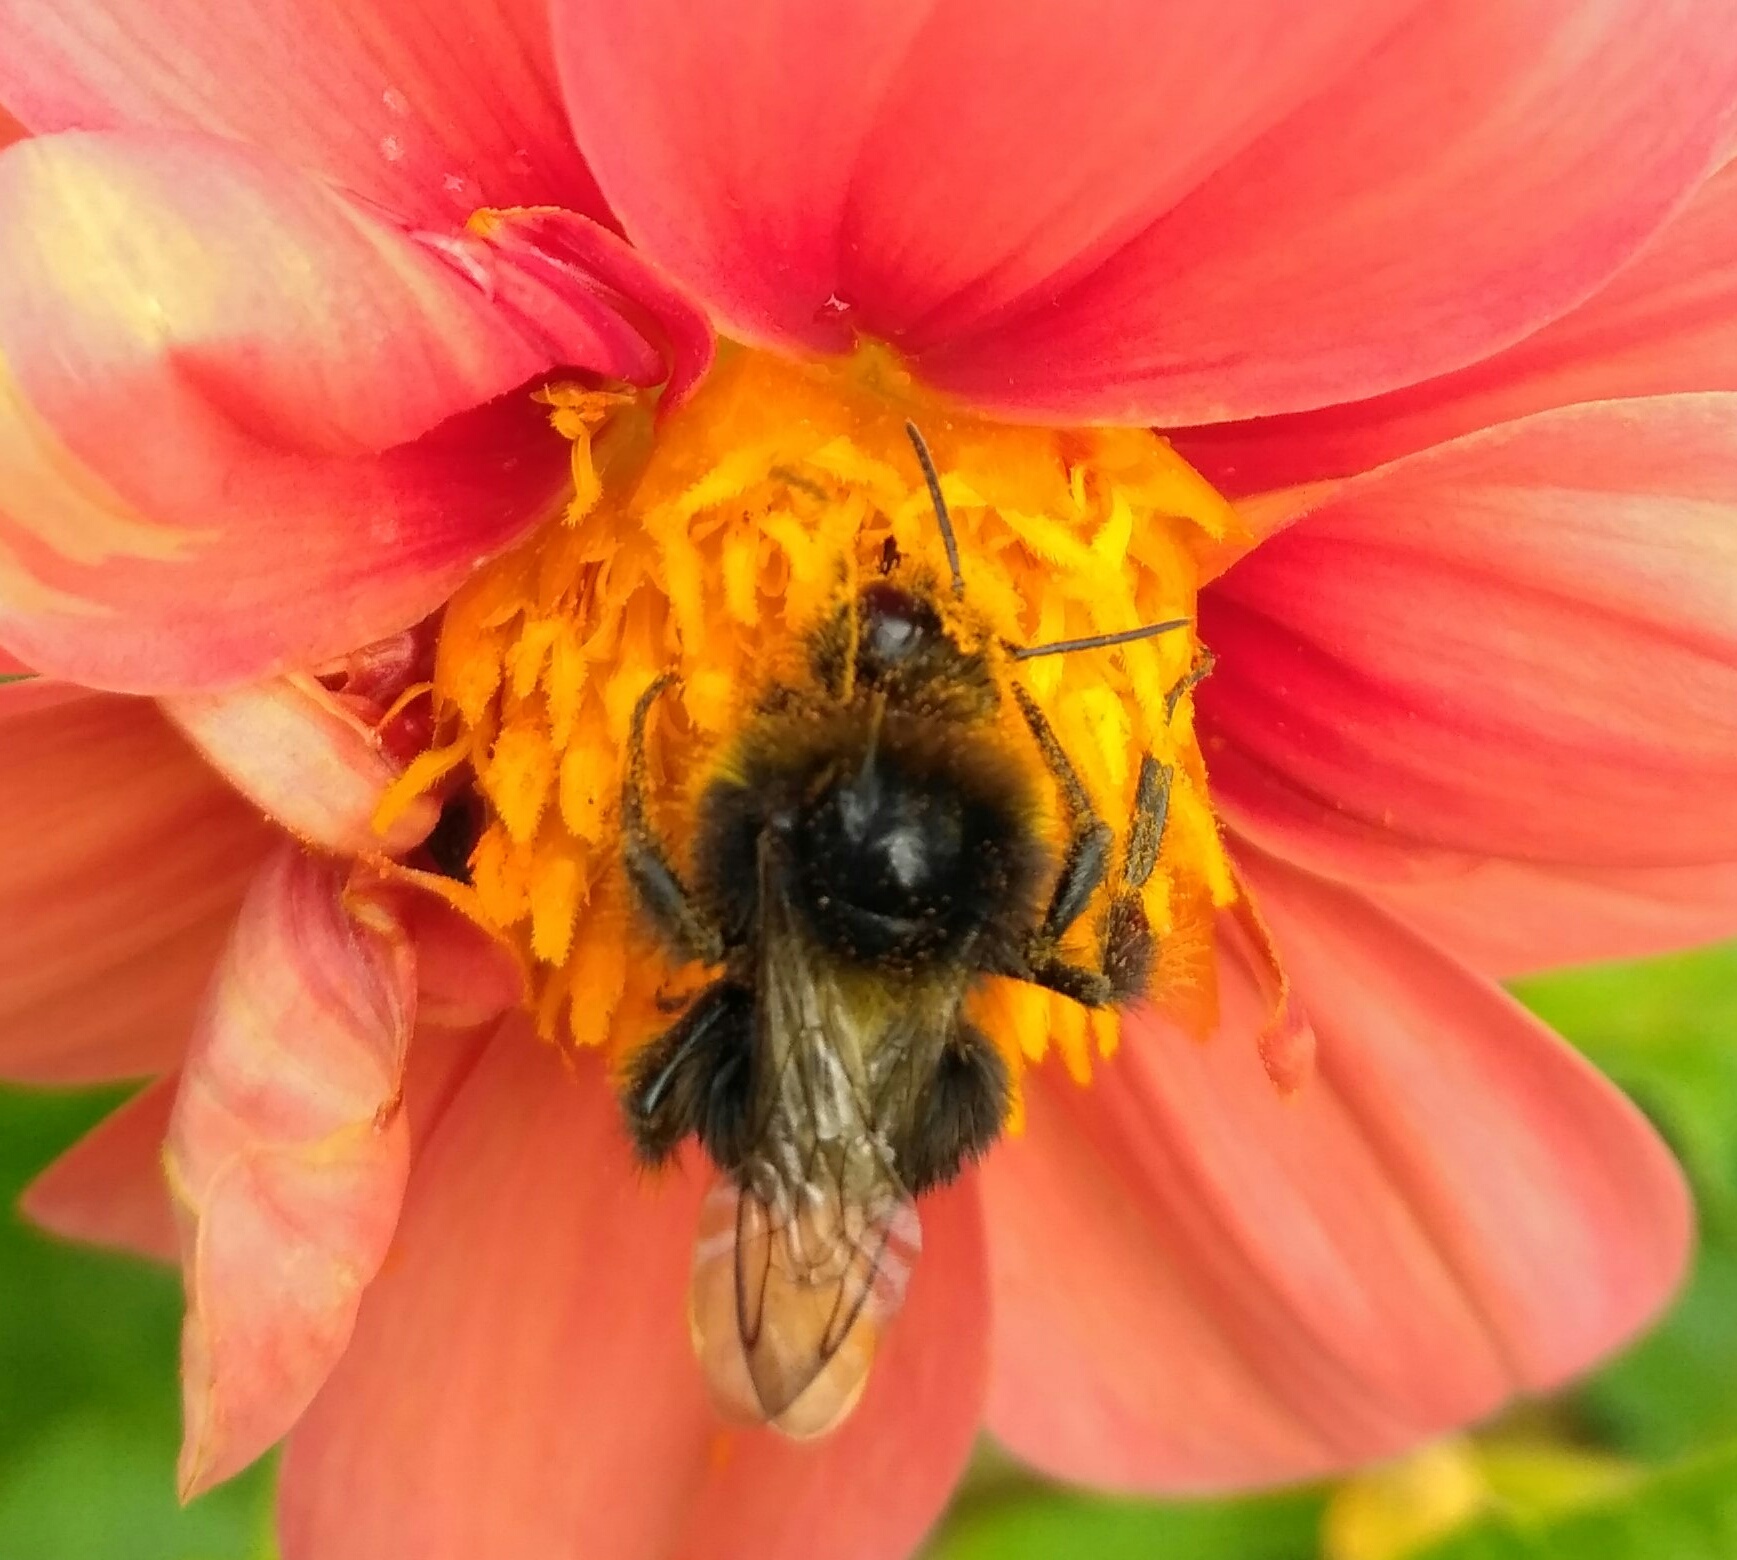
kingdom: Animalia
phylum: Arthropoda
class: Insecta
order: Hymenoptera
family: Apidae
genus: Bombus
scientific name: Bombus
